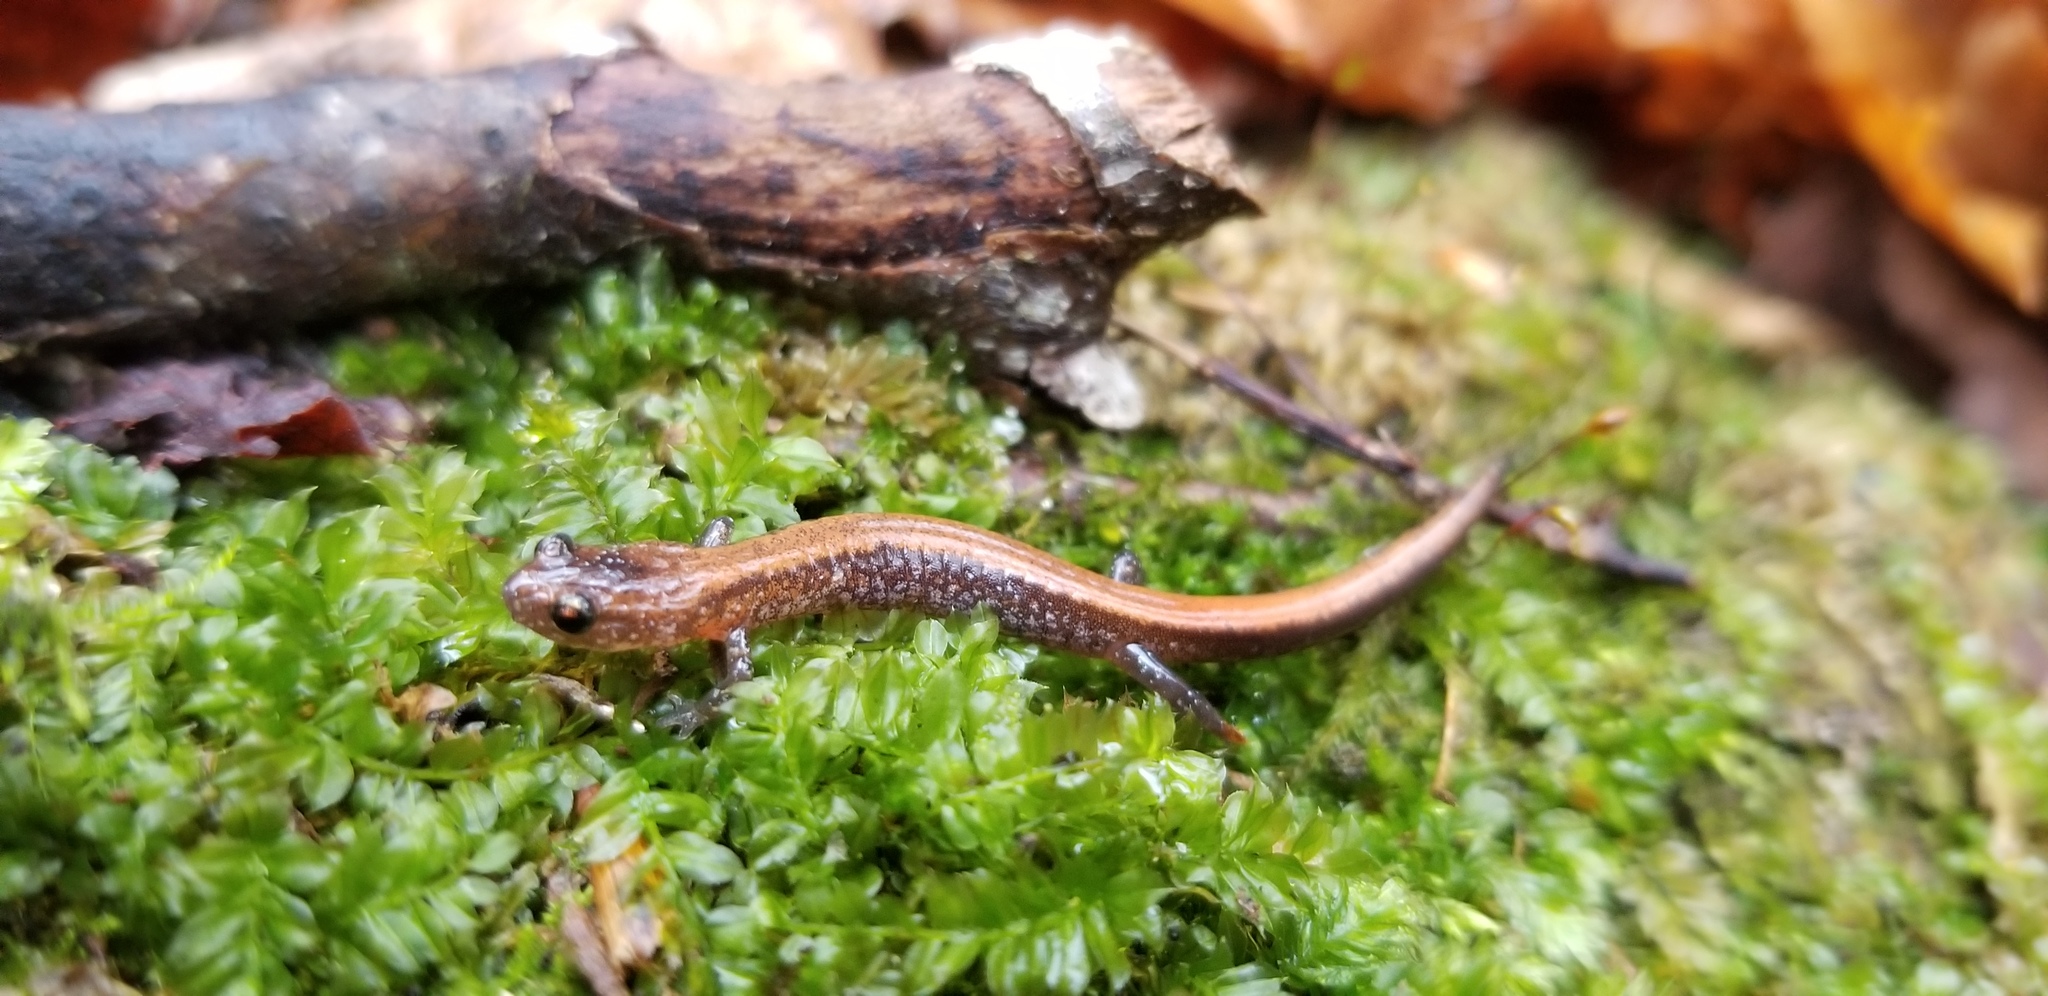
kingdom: Animalia
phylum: Chordata
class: Amphibia
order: Caudata
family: Plethodontidae
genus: Plethodon
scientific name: Plethodon cinereus
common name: Redback salamander
